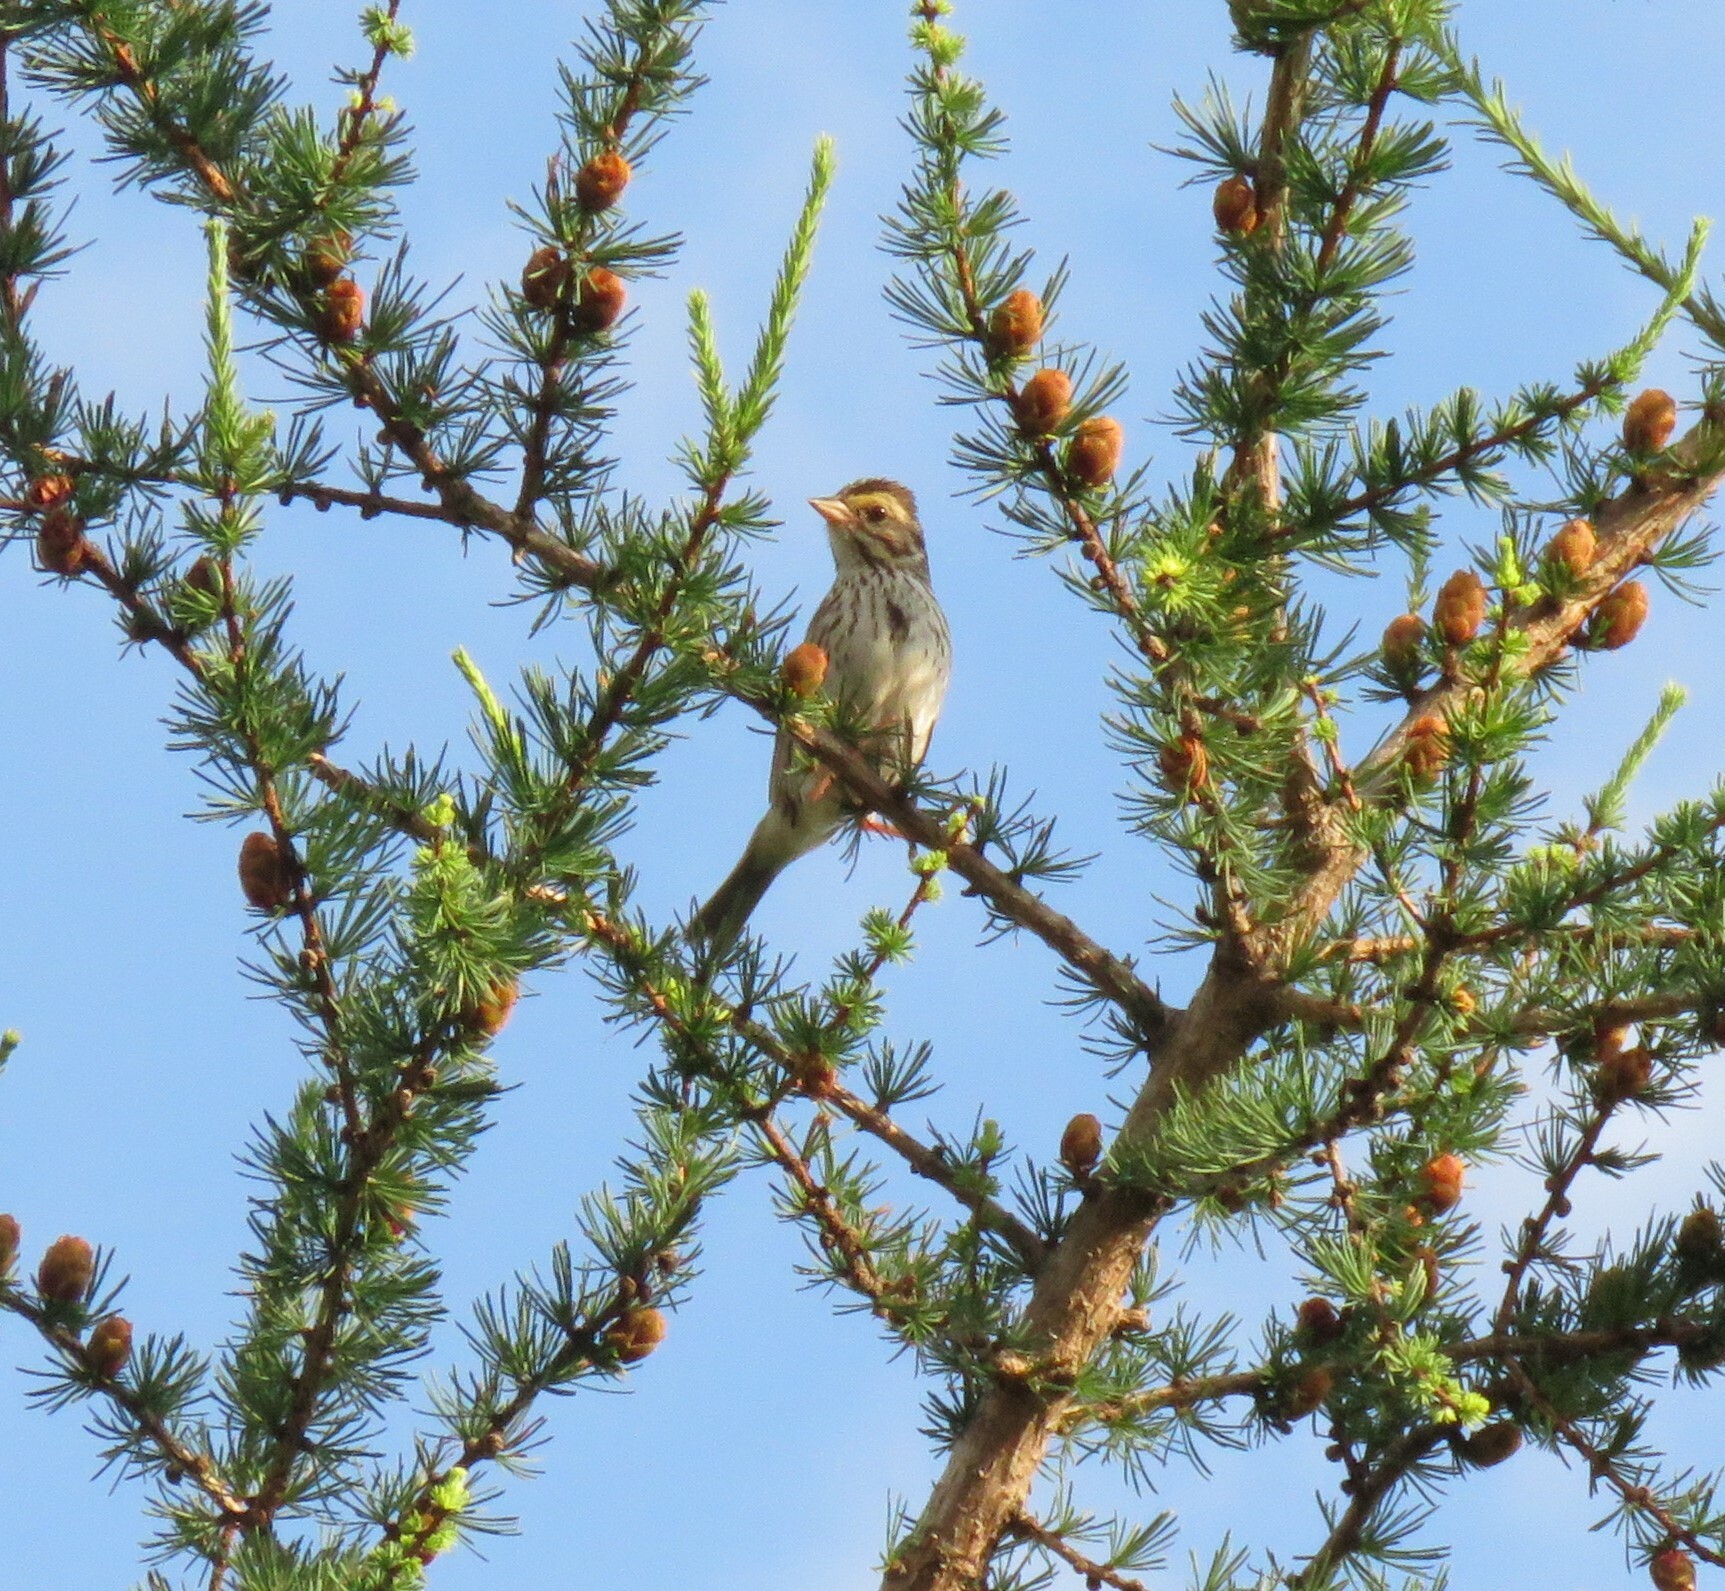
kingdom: Animalia
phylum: Chordata
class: Aves
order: Passeriformes
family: Passerellidae
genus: Passerculus
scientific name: Passerculus sandwichensis
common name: Savannah sparrow
